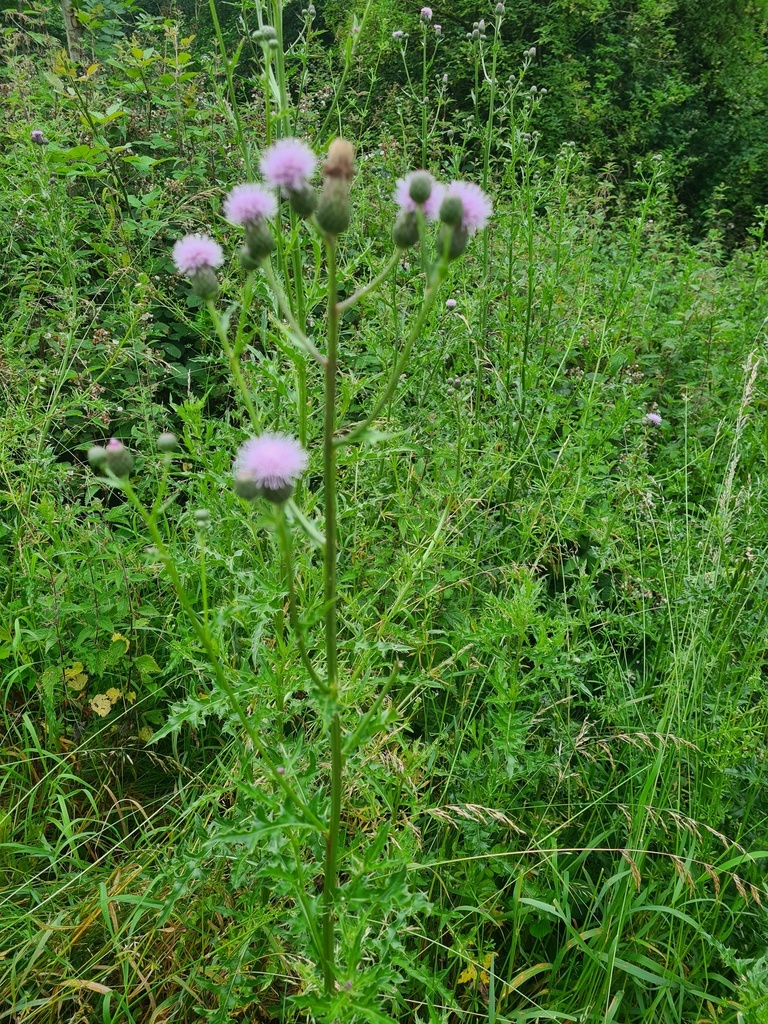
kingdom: Plantae
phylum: Tracheophyta
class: Magnoliopsida
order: Asterales
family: Asteraceae
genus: Cirsium
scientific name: Cirsium arvense
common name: Creeping thistle
